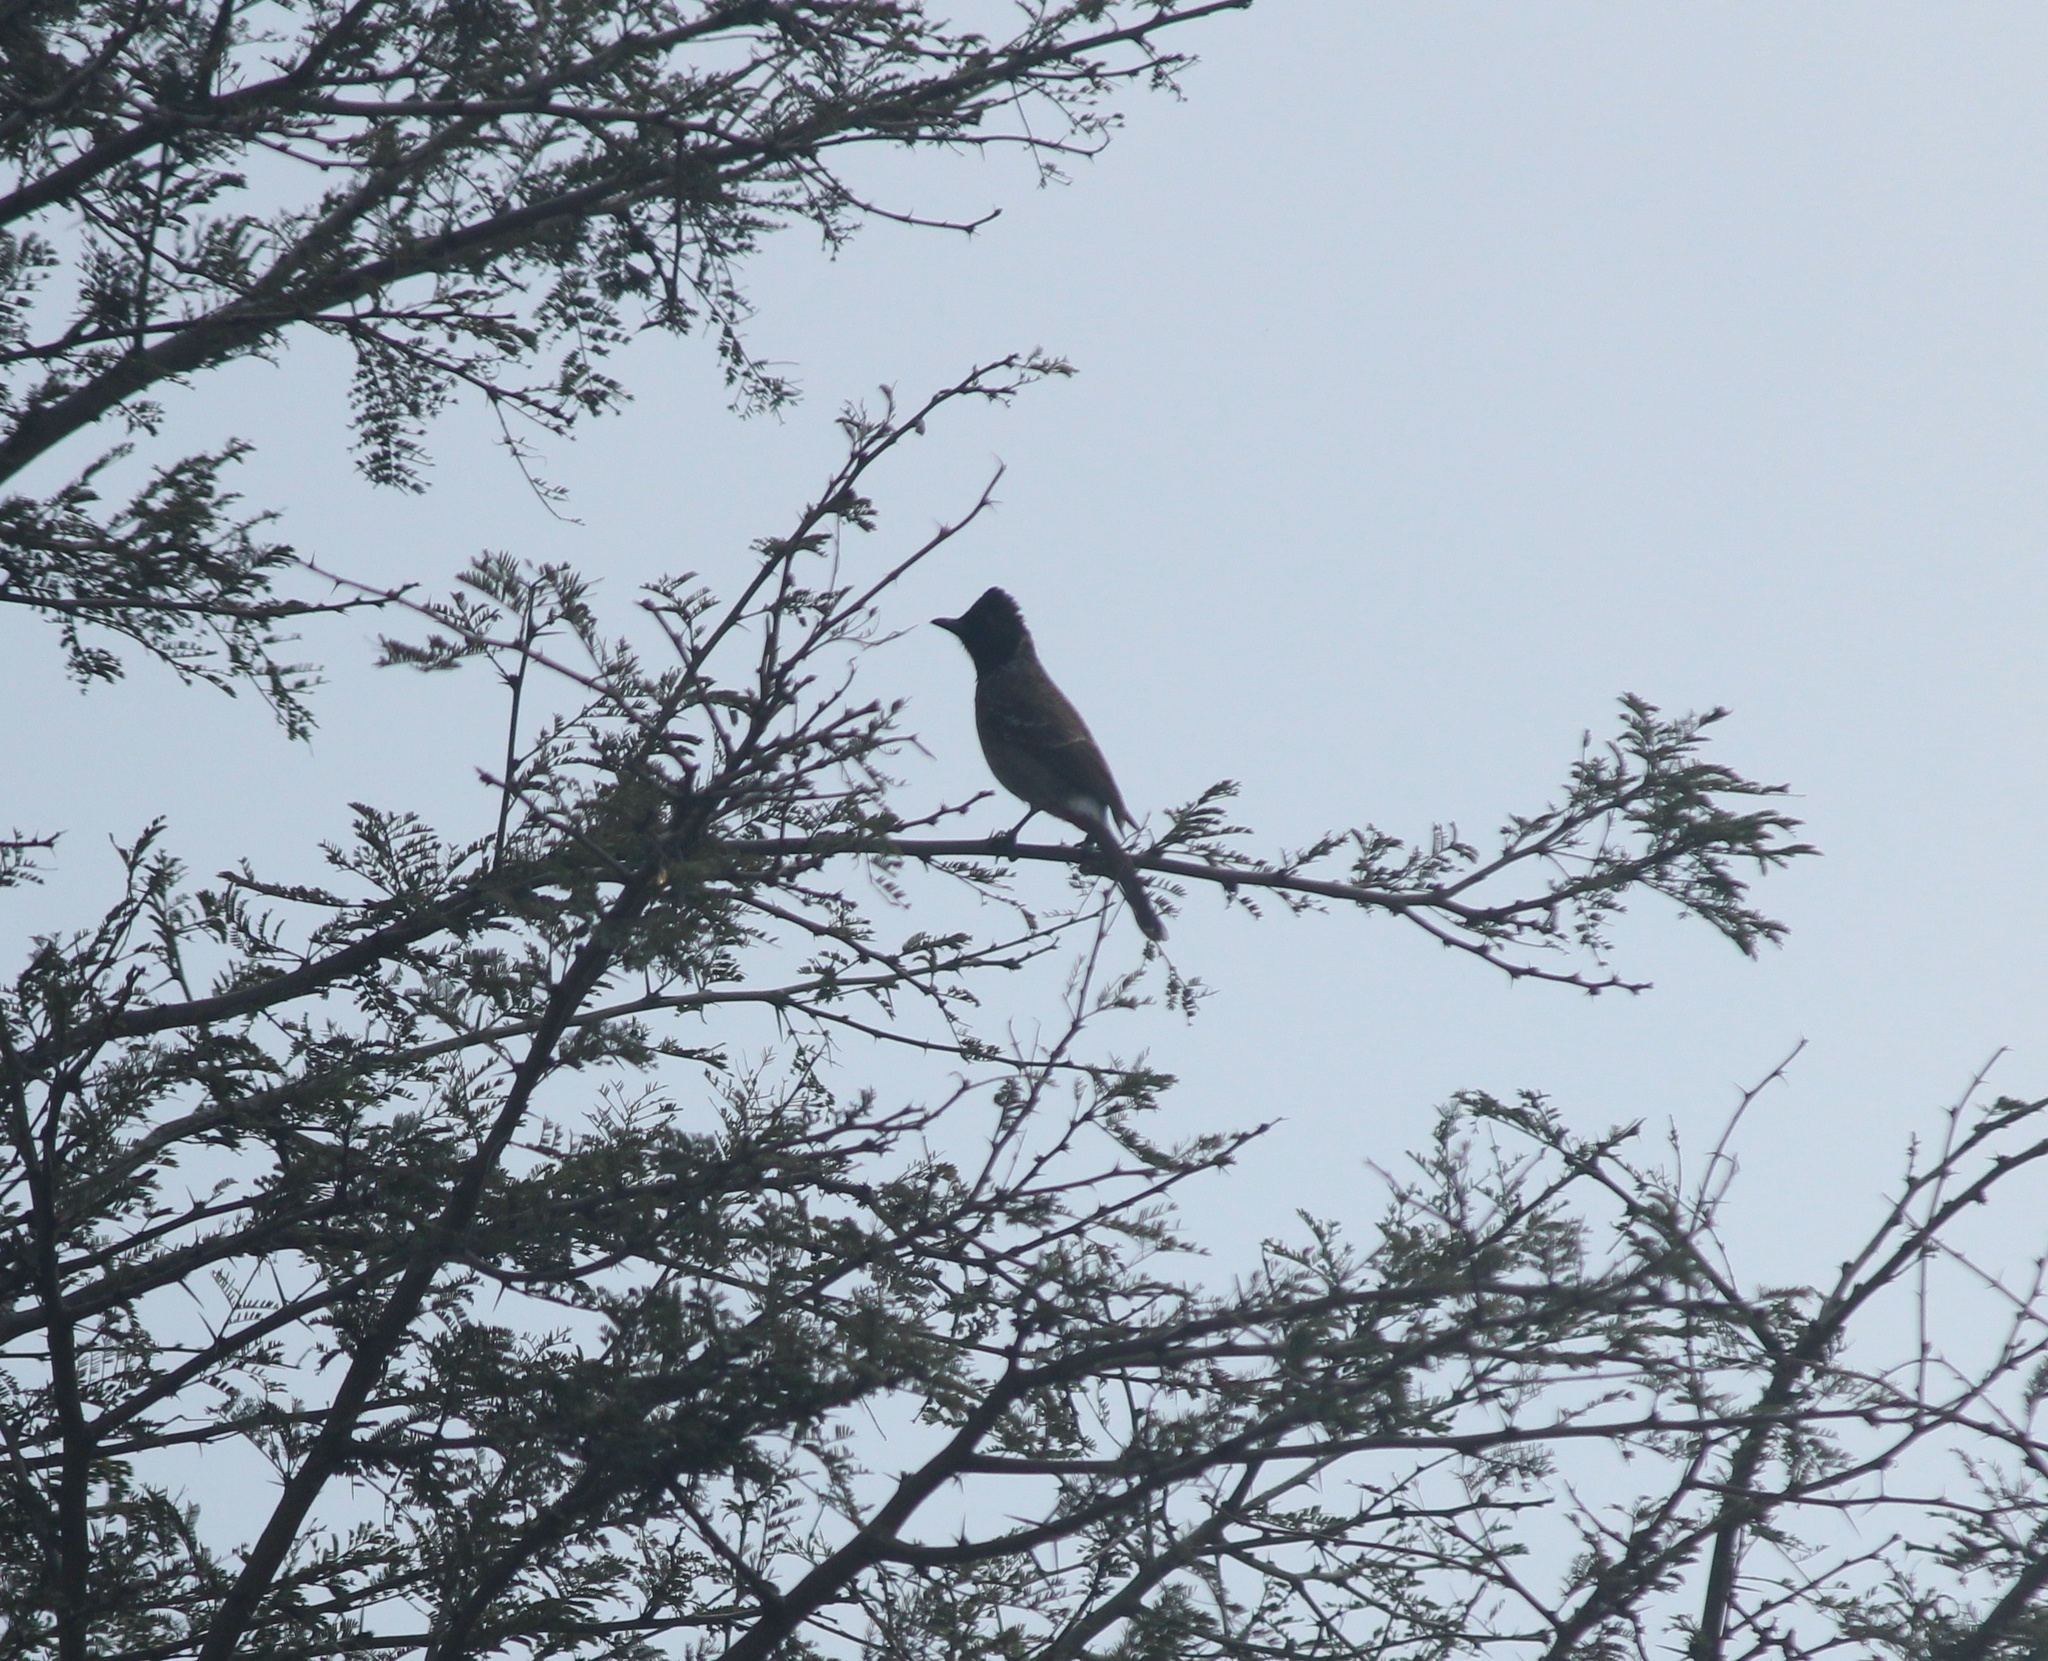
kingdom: Animalia
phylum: Chordata
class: Aves
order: Passeriformes
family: Pycnonotidae
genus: Pycnonotus
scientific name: Pycnonotus cafer
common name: Red-vented bulbul
